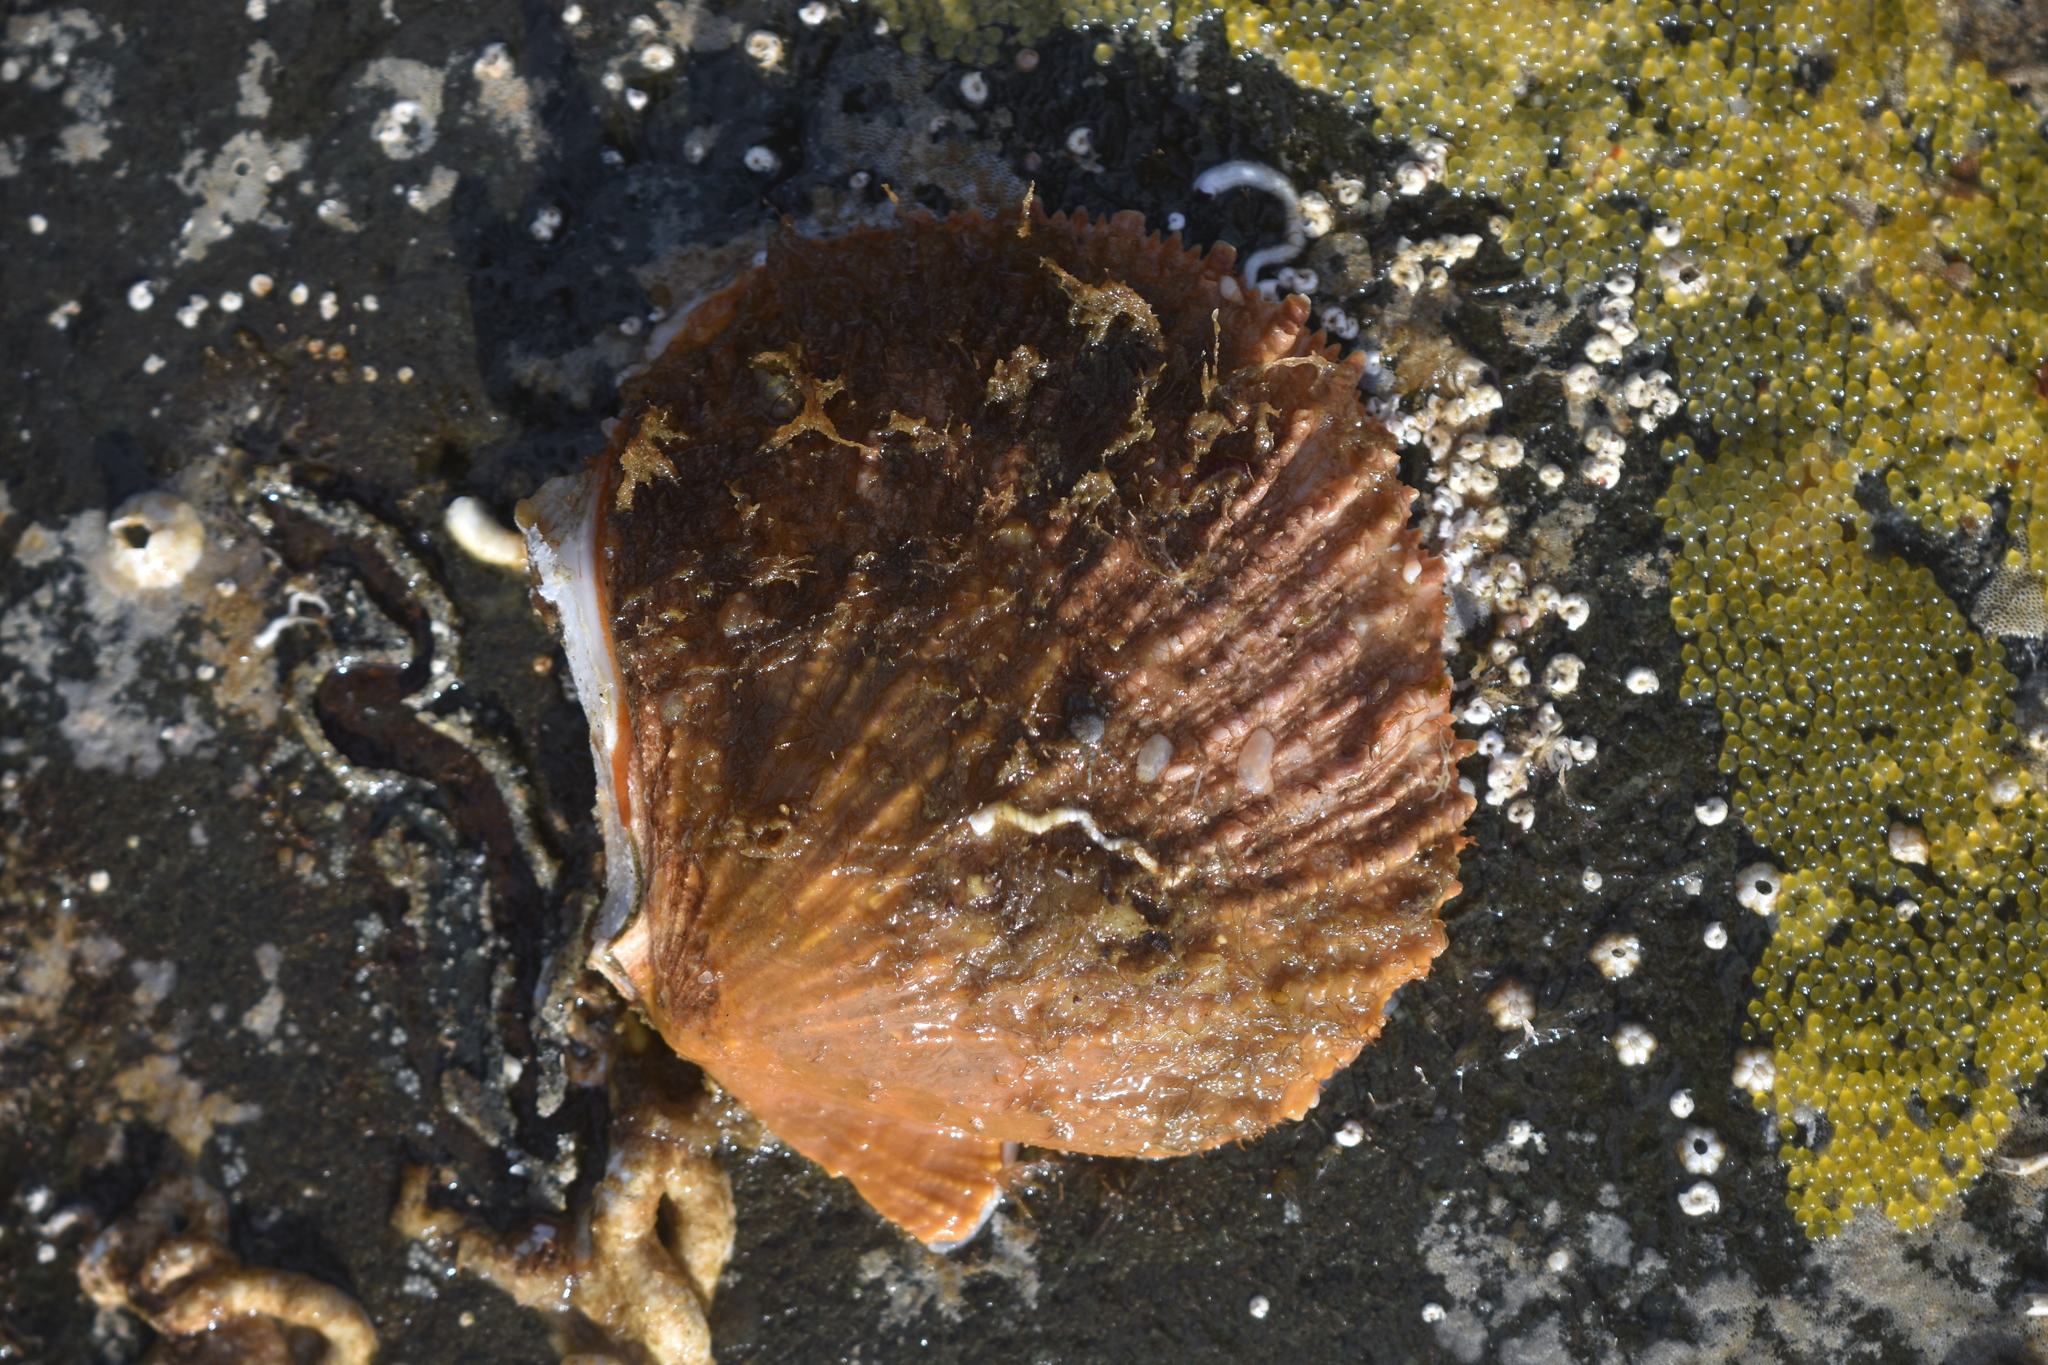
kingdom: Animalia
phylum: Mollusca
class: Bivalvia
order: Pectinida
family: Pectinidae
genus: Crassadoma
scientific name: Crassadoma gigantea
